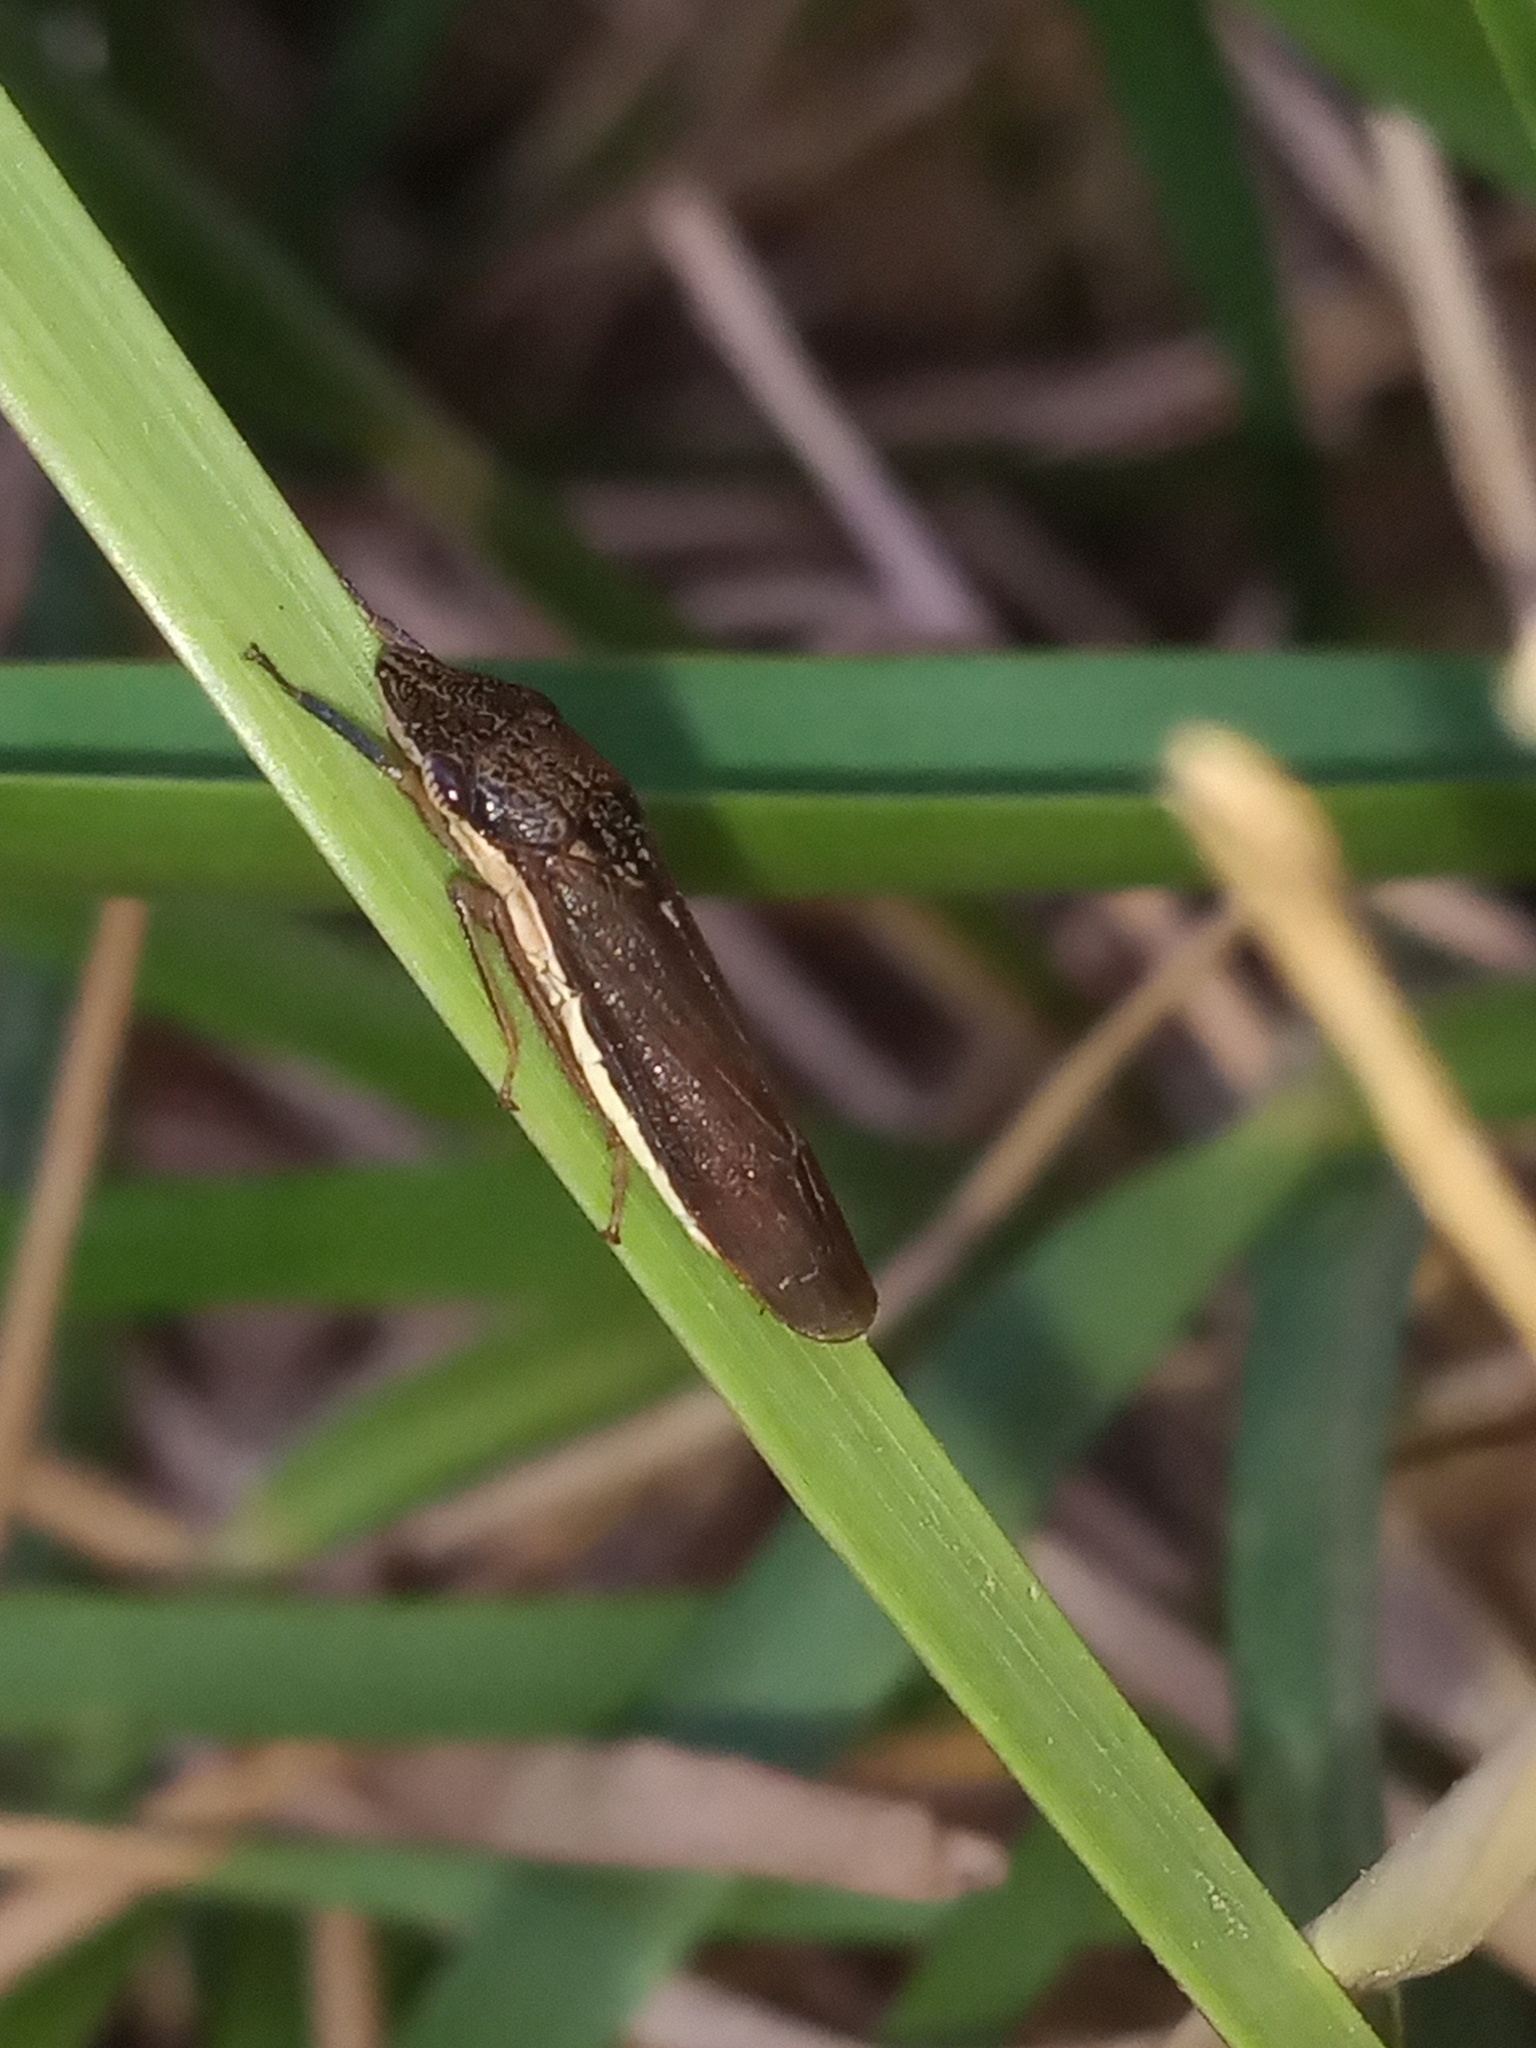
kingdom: Animalia
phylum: Arthropoda
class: Insecta
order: Hemiptera
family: Cicadellidae
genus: Homalodisca
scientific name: Homalodisca insolita
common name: Johnson grass sharpshooter
